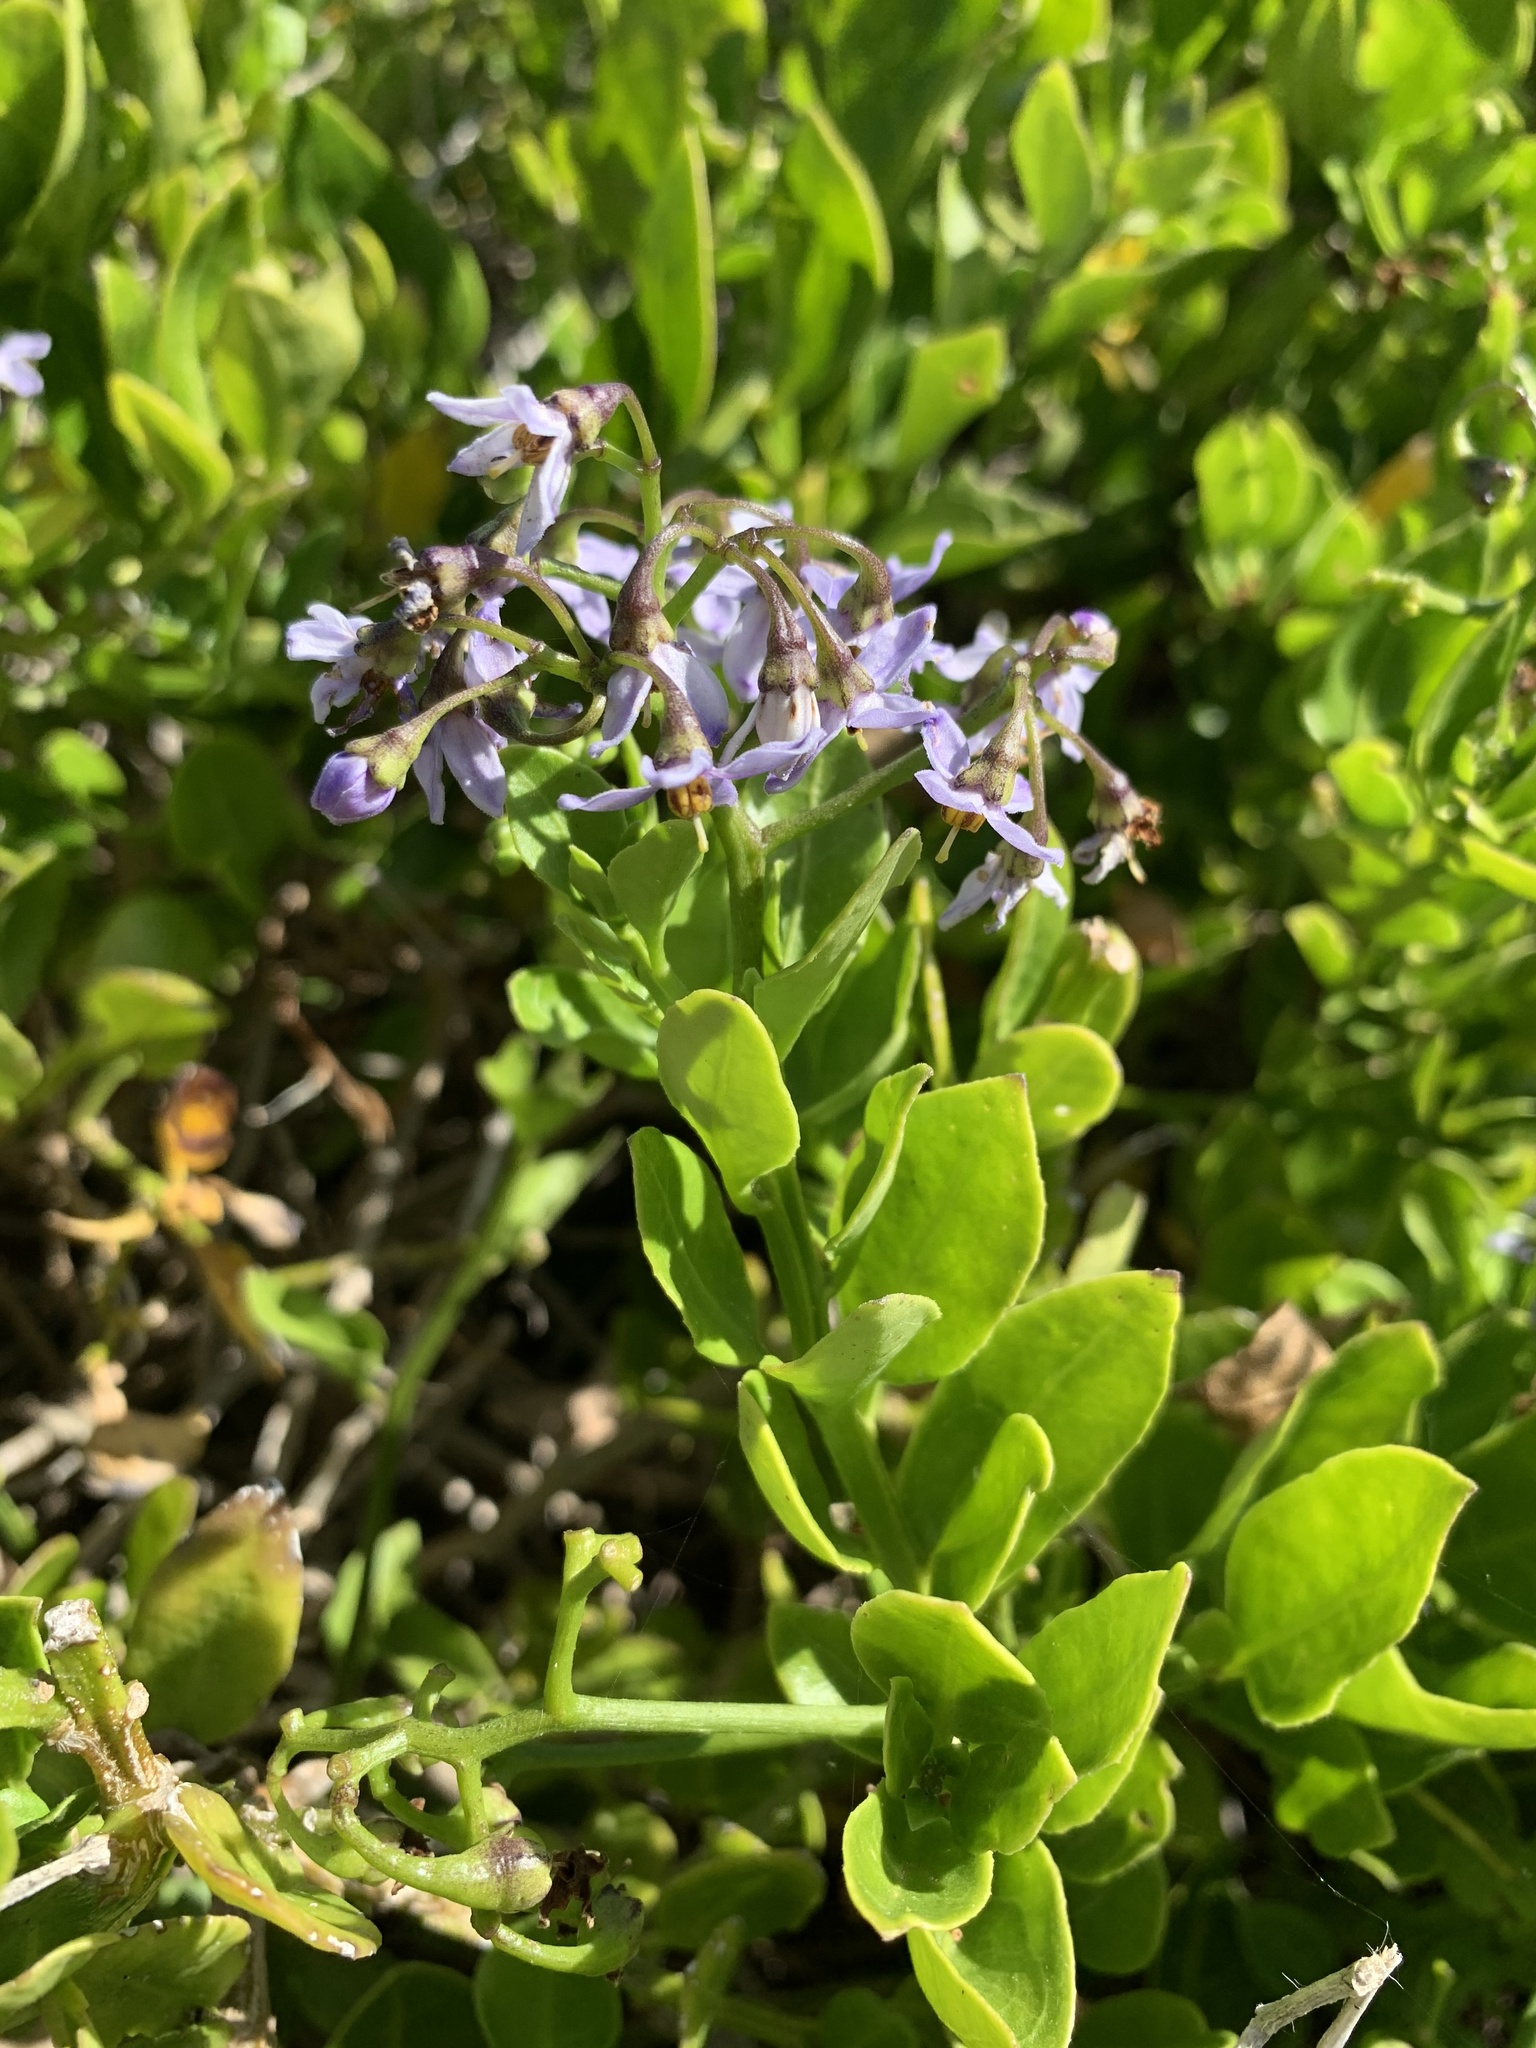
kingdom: Plantae
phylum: Tracheophyta
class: Magnoliopsida
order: Solanales
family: Solanaceae
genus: Solanum
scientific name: Solanum africanum
